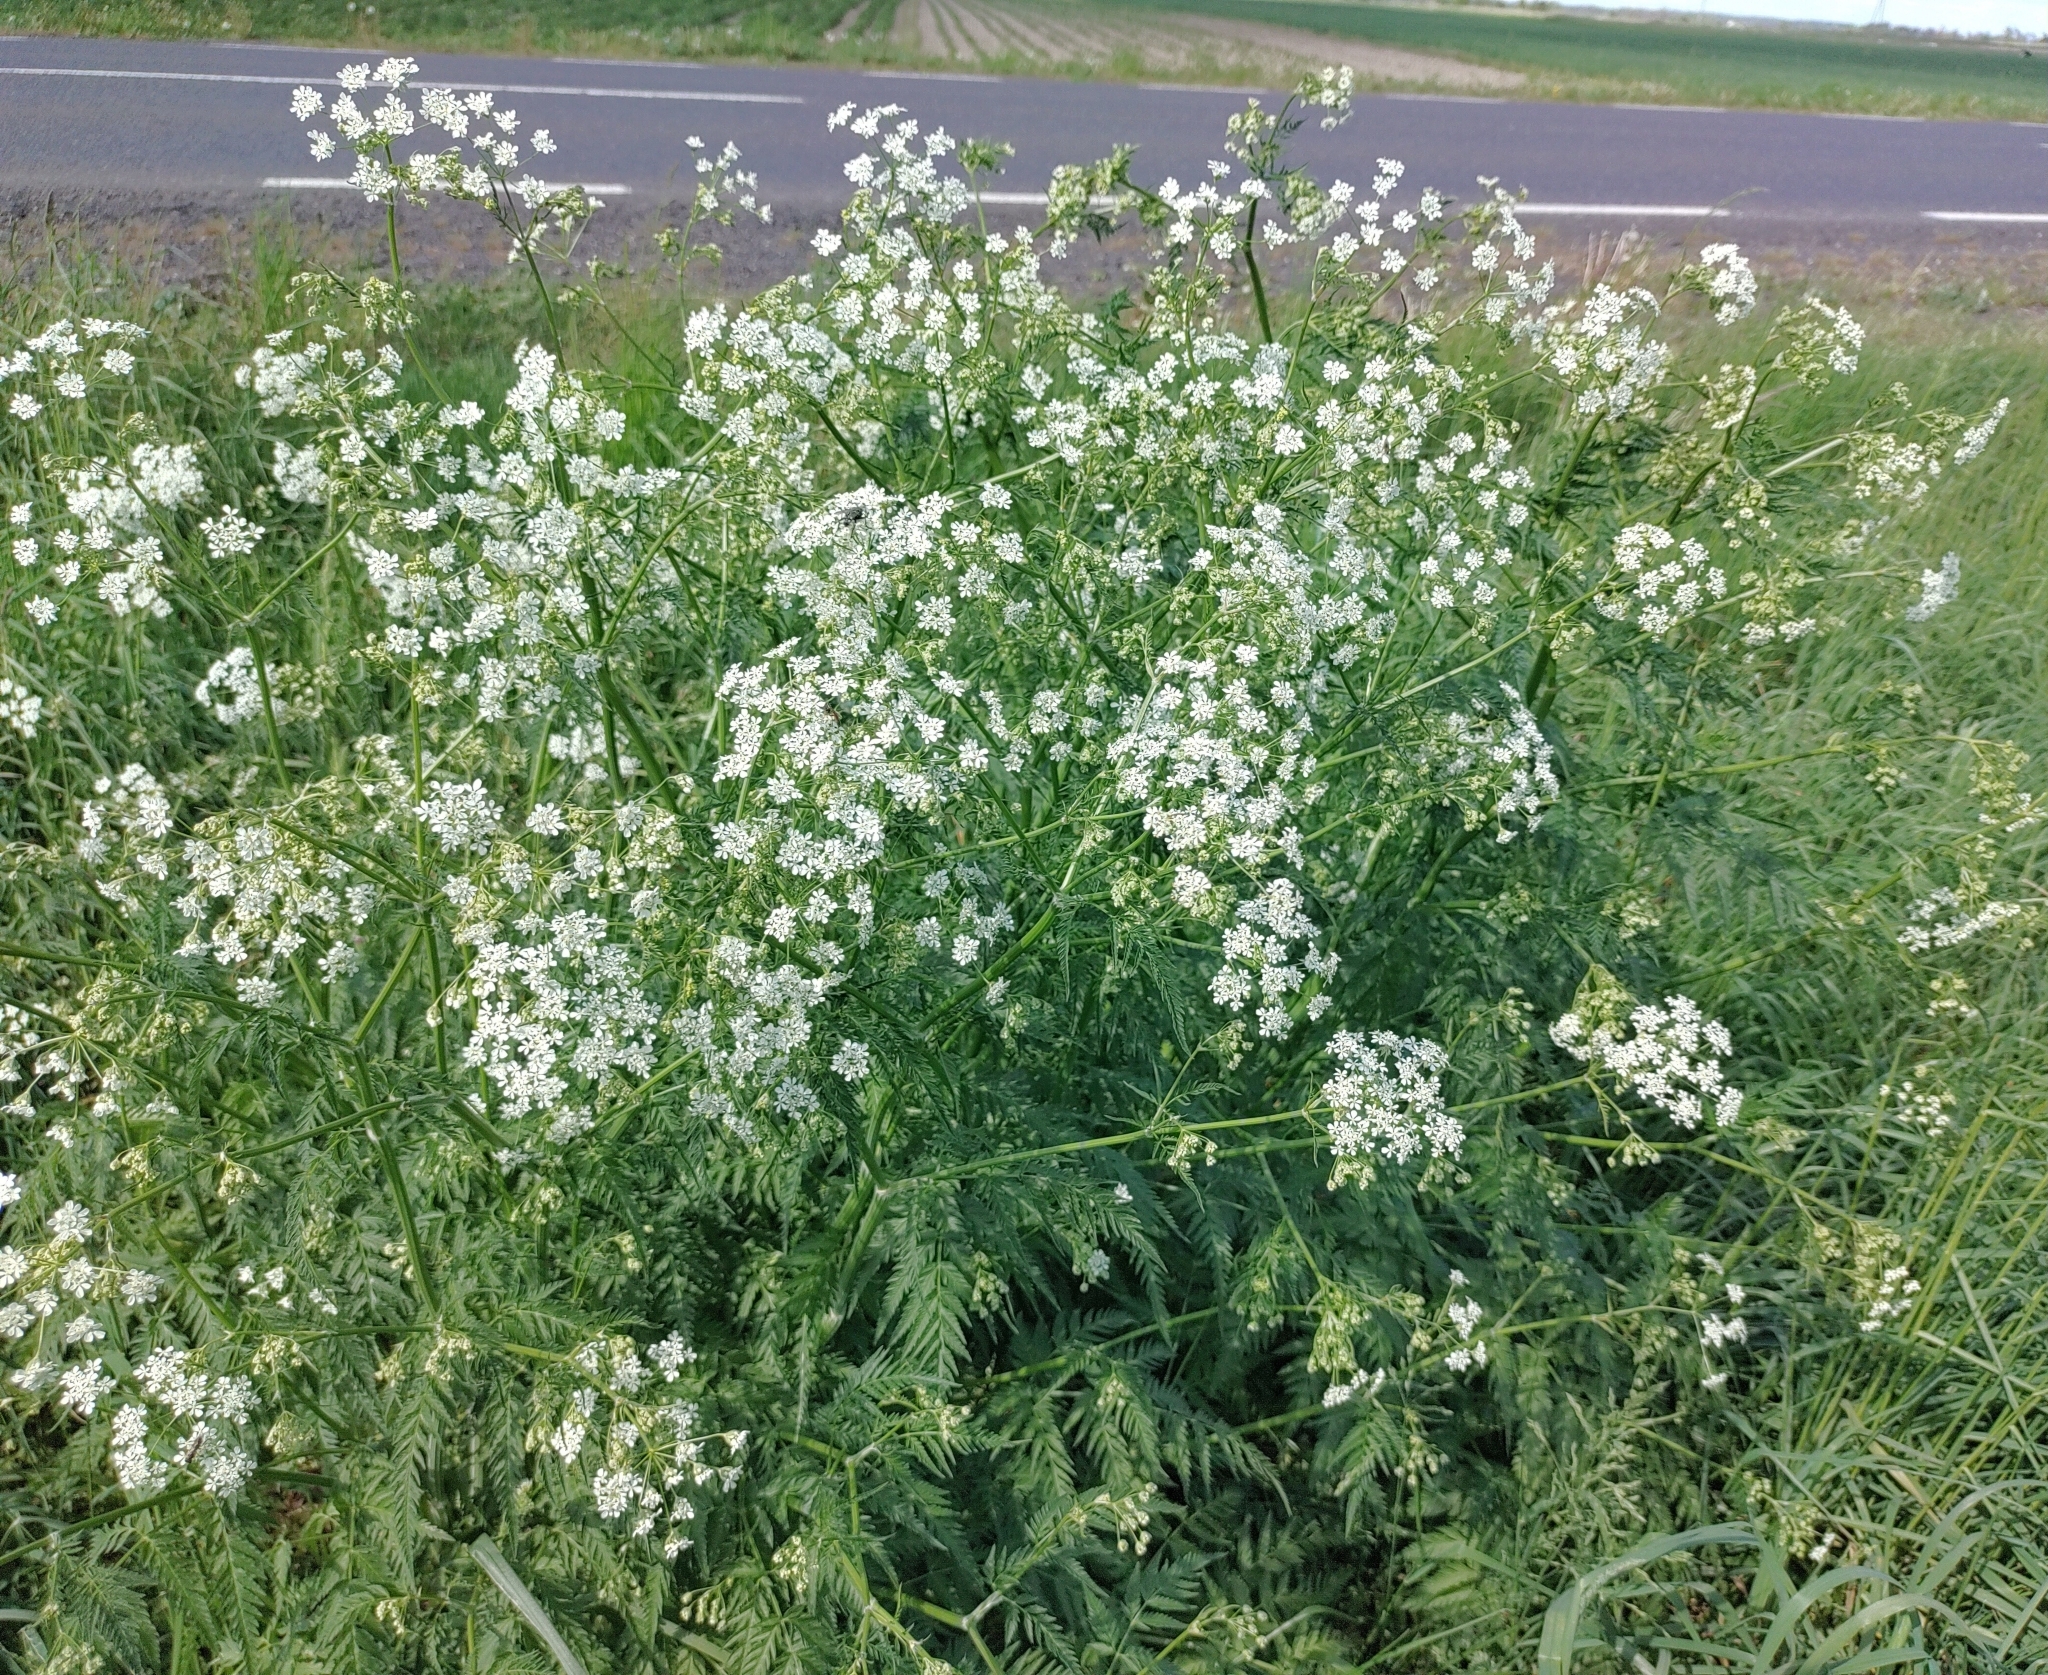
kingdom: Plantae
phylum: Tracheophyta
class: Magnoliopsida
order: Apiales
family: Apiaceae
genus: Anthriscus
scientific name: Anthriscus sylvestris
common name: Cow parsley
